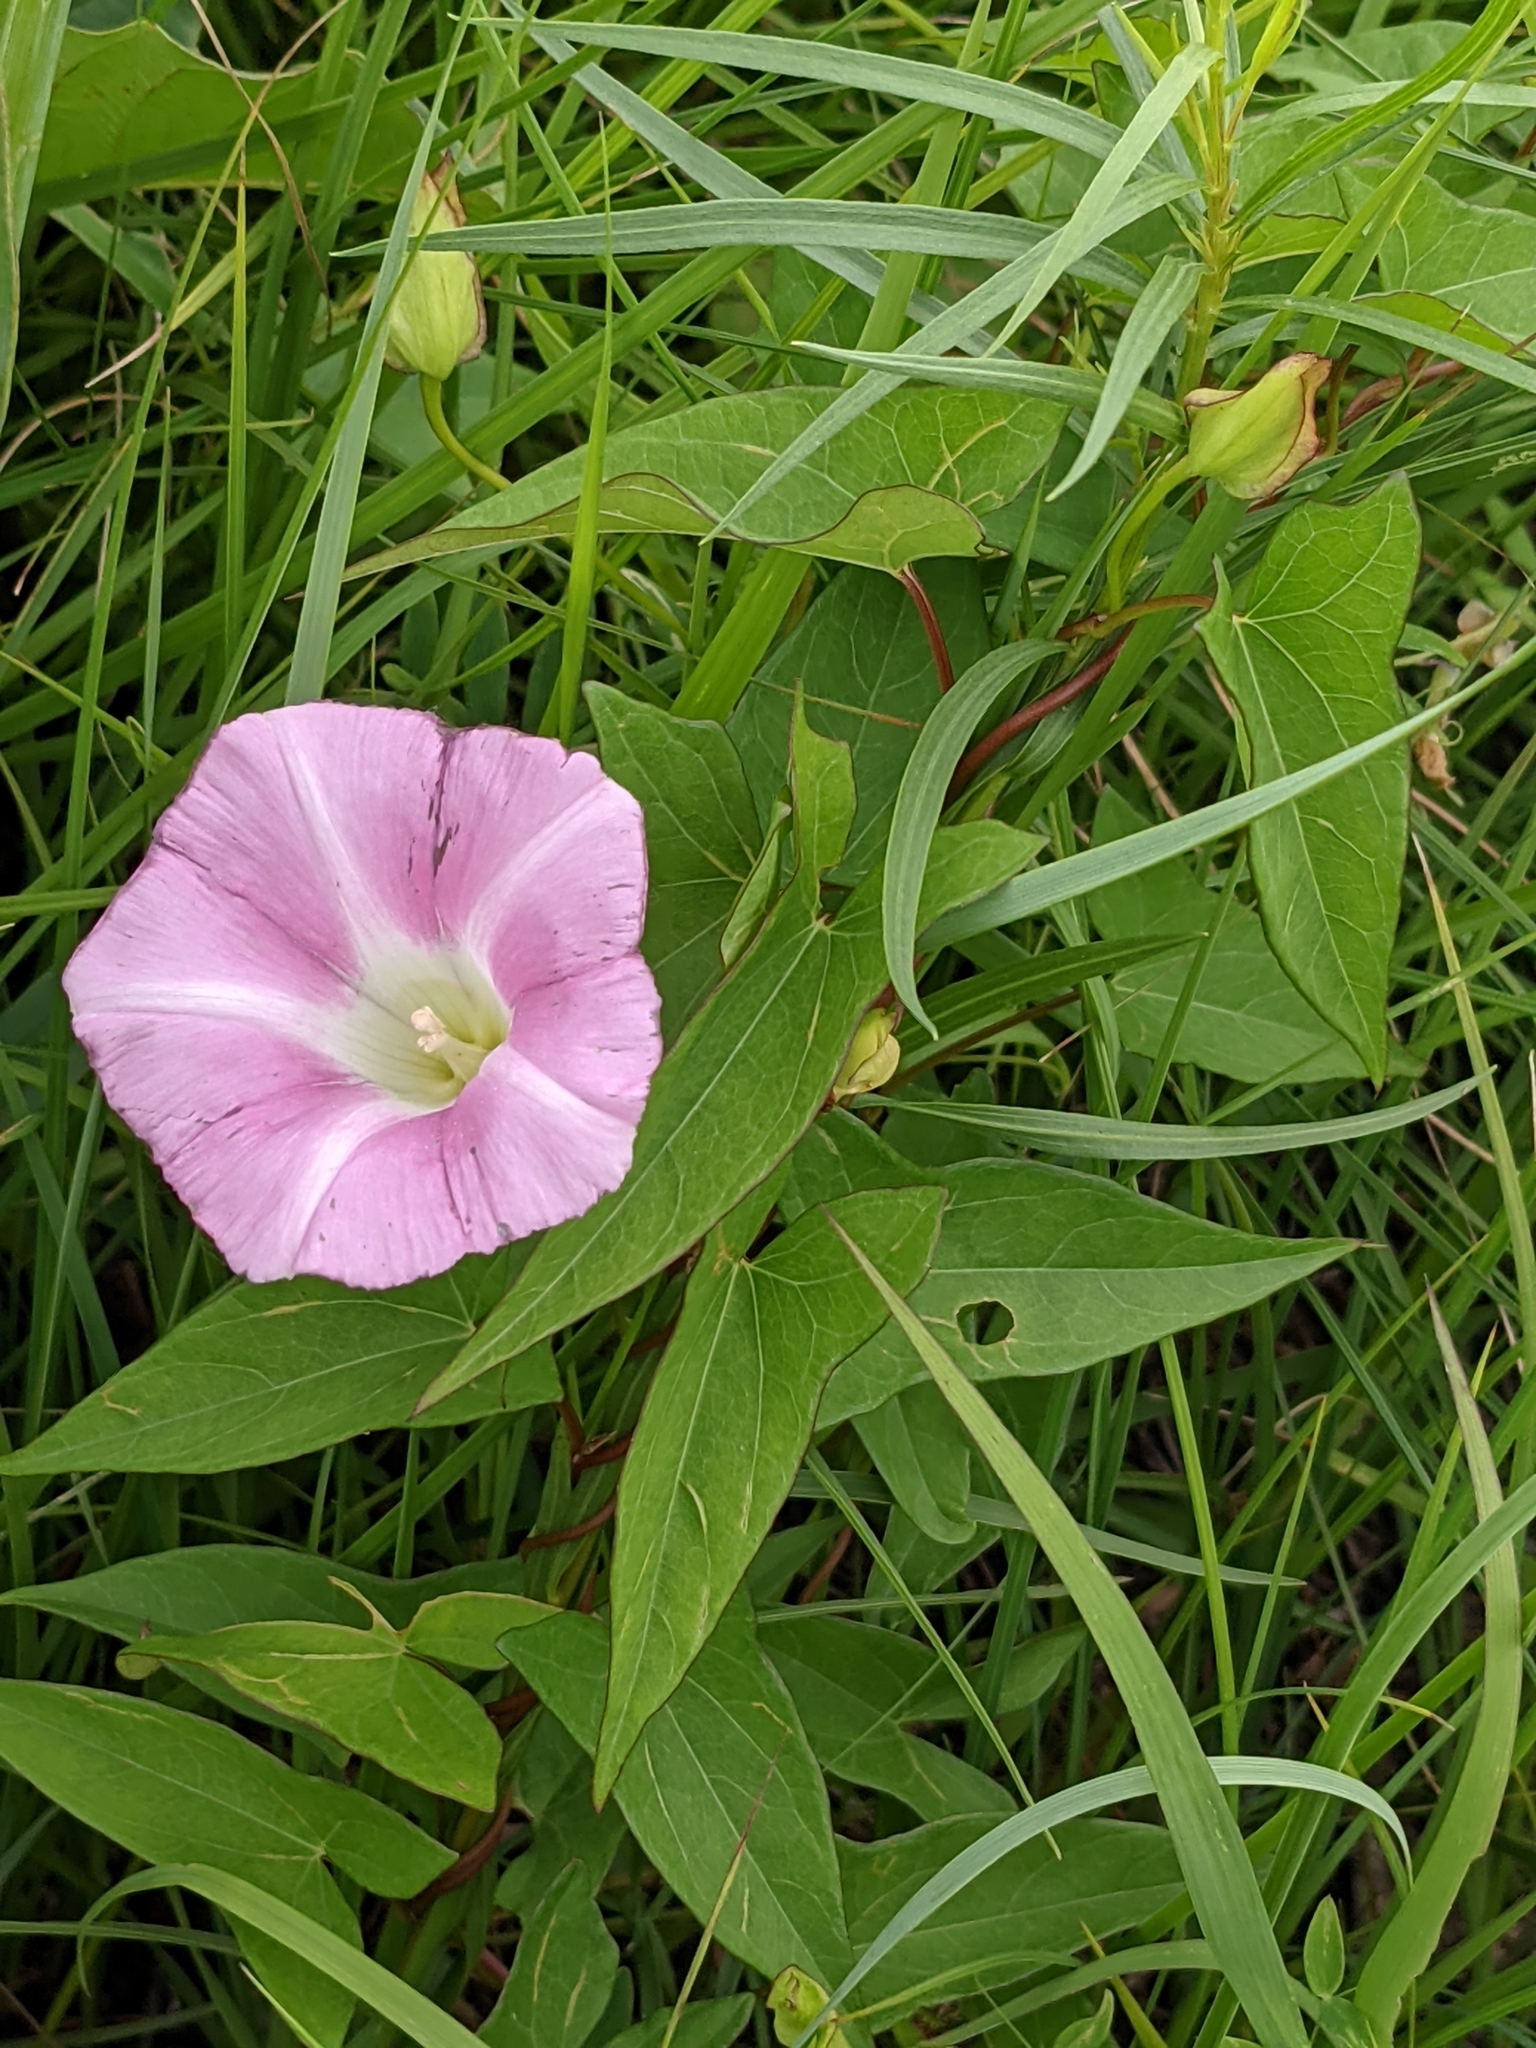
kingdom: Plantae
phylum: Tracheophyta
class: Magnoliopsida
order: Solanales
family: Convolvulaceae
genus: Calystegia
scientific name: Calystegia sepium
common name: Hedge bindweed
